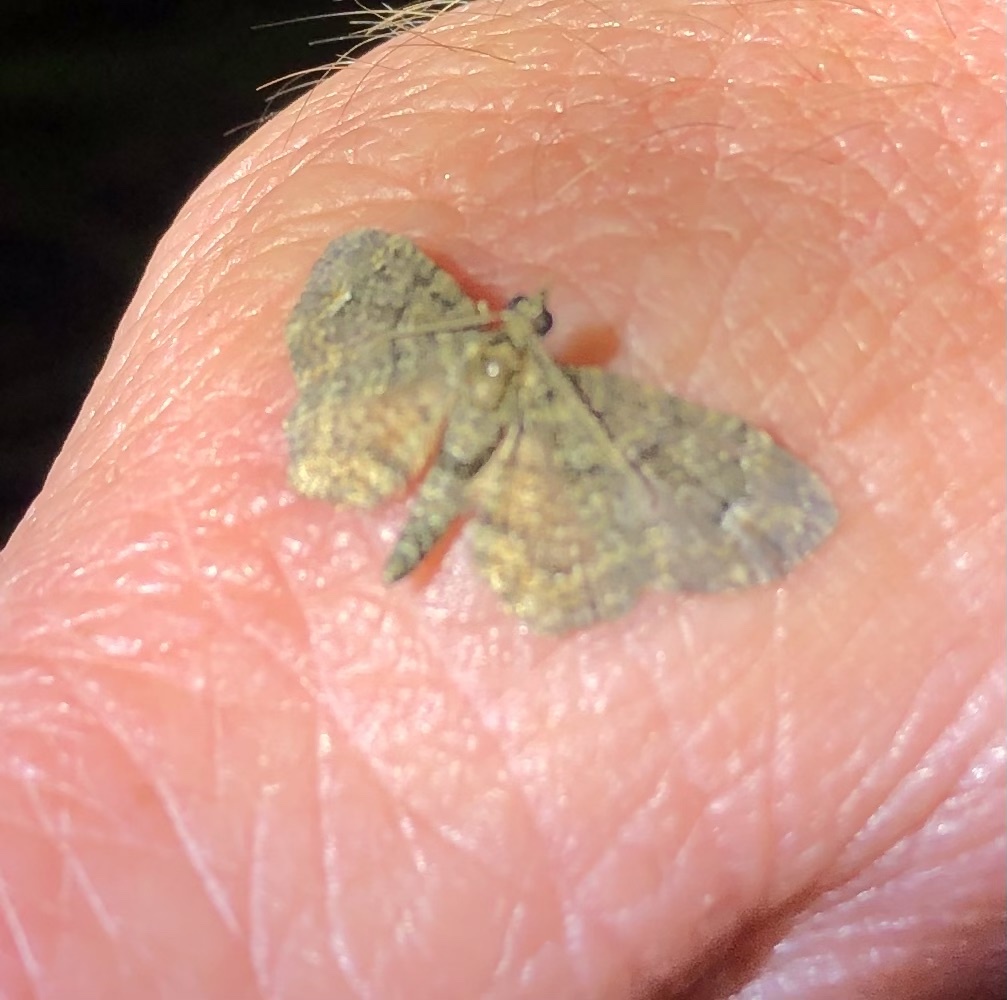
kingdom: Animalia
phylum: Arthropoda
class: Insecta
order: Lepidoptera
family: Geometridae
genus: Pasiphilodes
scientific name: Pasiphilodes testulata
